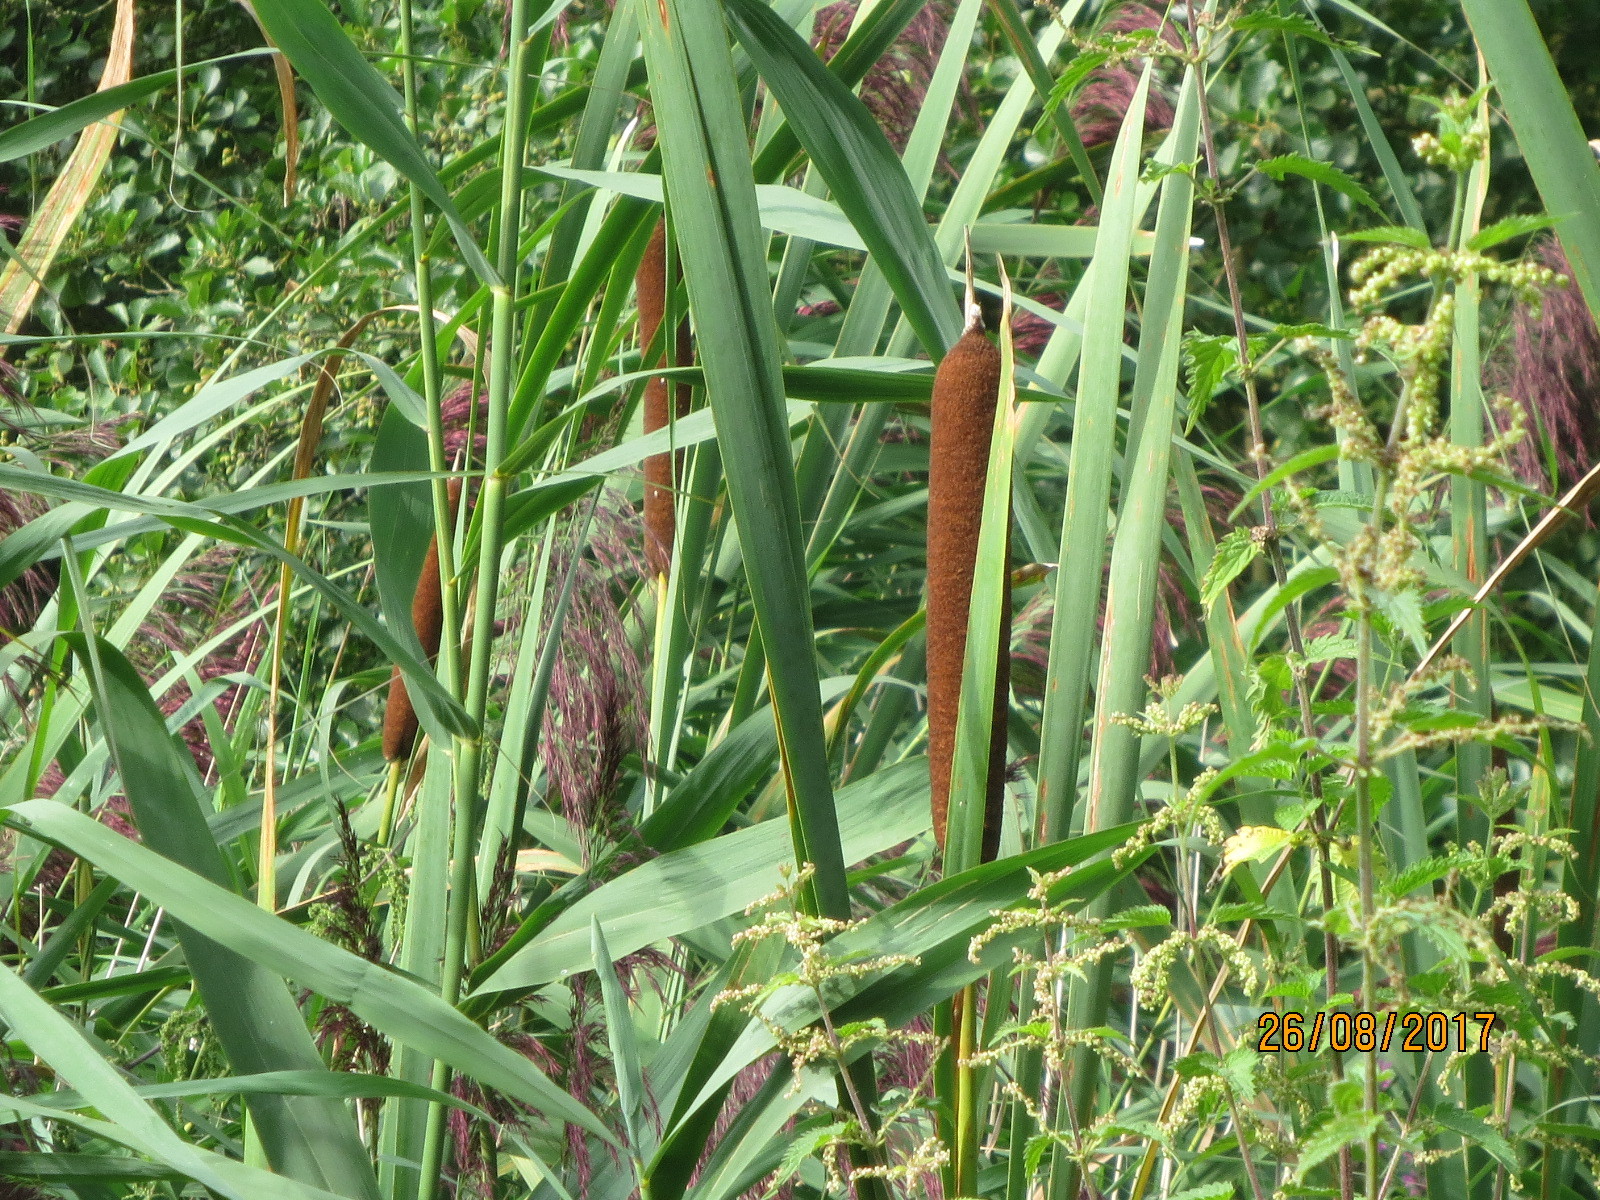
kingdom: Plantae
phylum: Tracheophyta
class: Liliopsida
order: Poales
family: Typhaceae
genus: Typha
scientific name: Typha latifolia
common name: Broadleaf cattail
